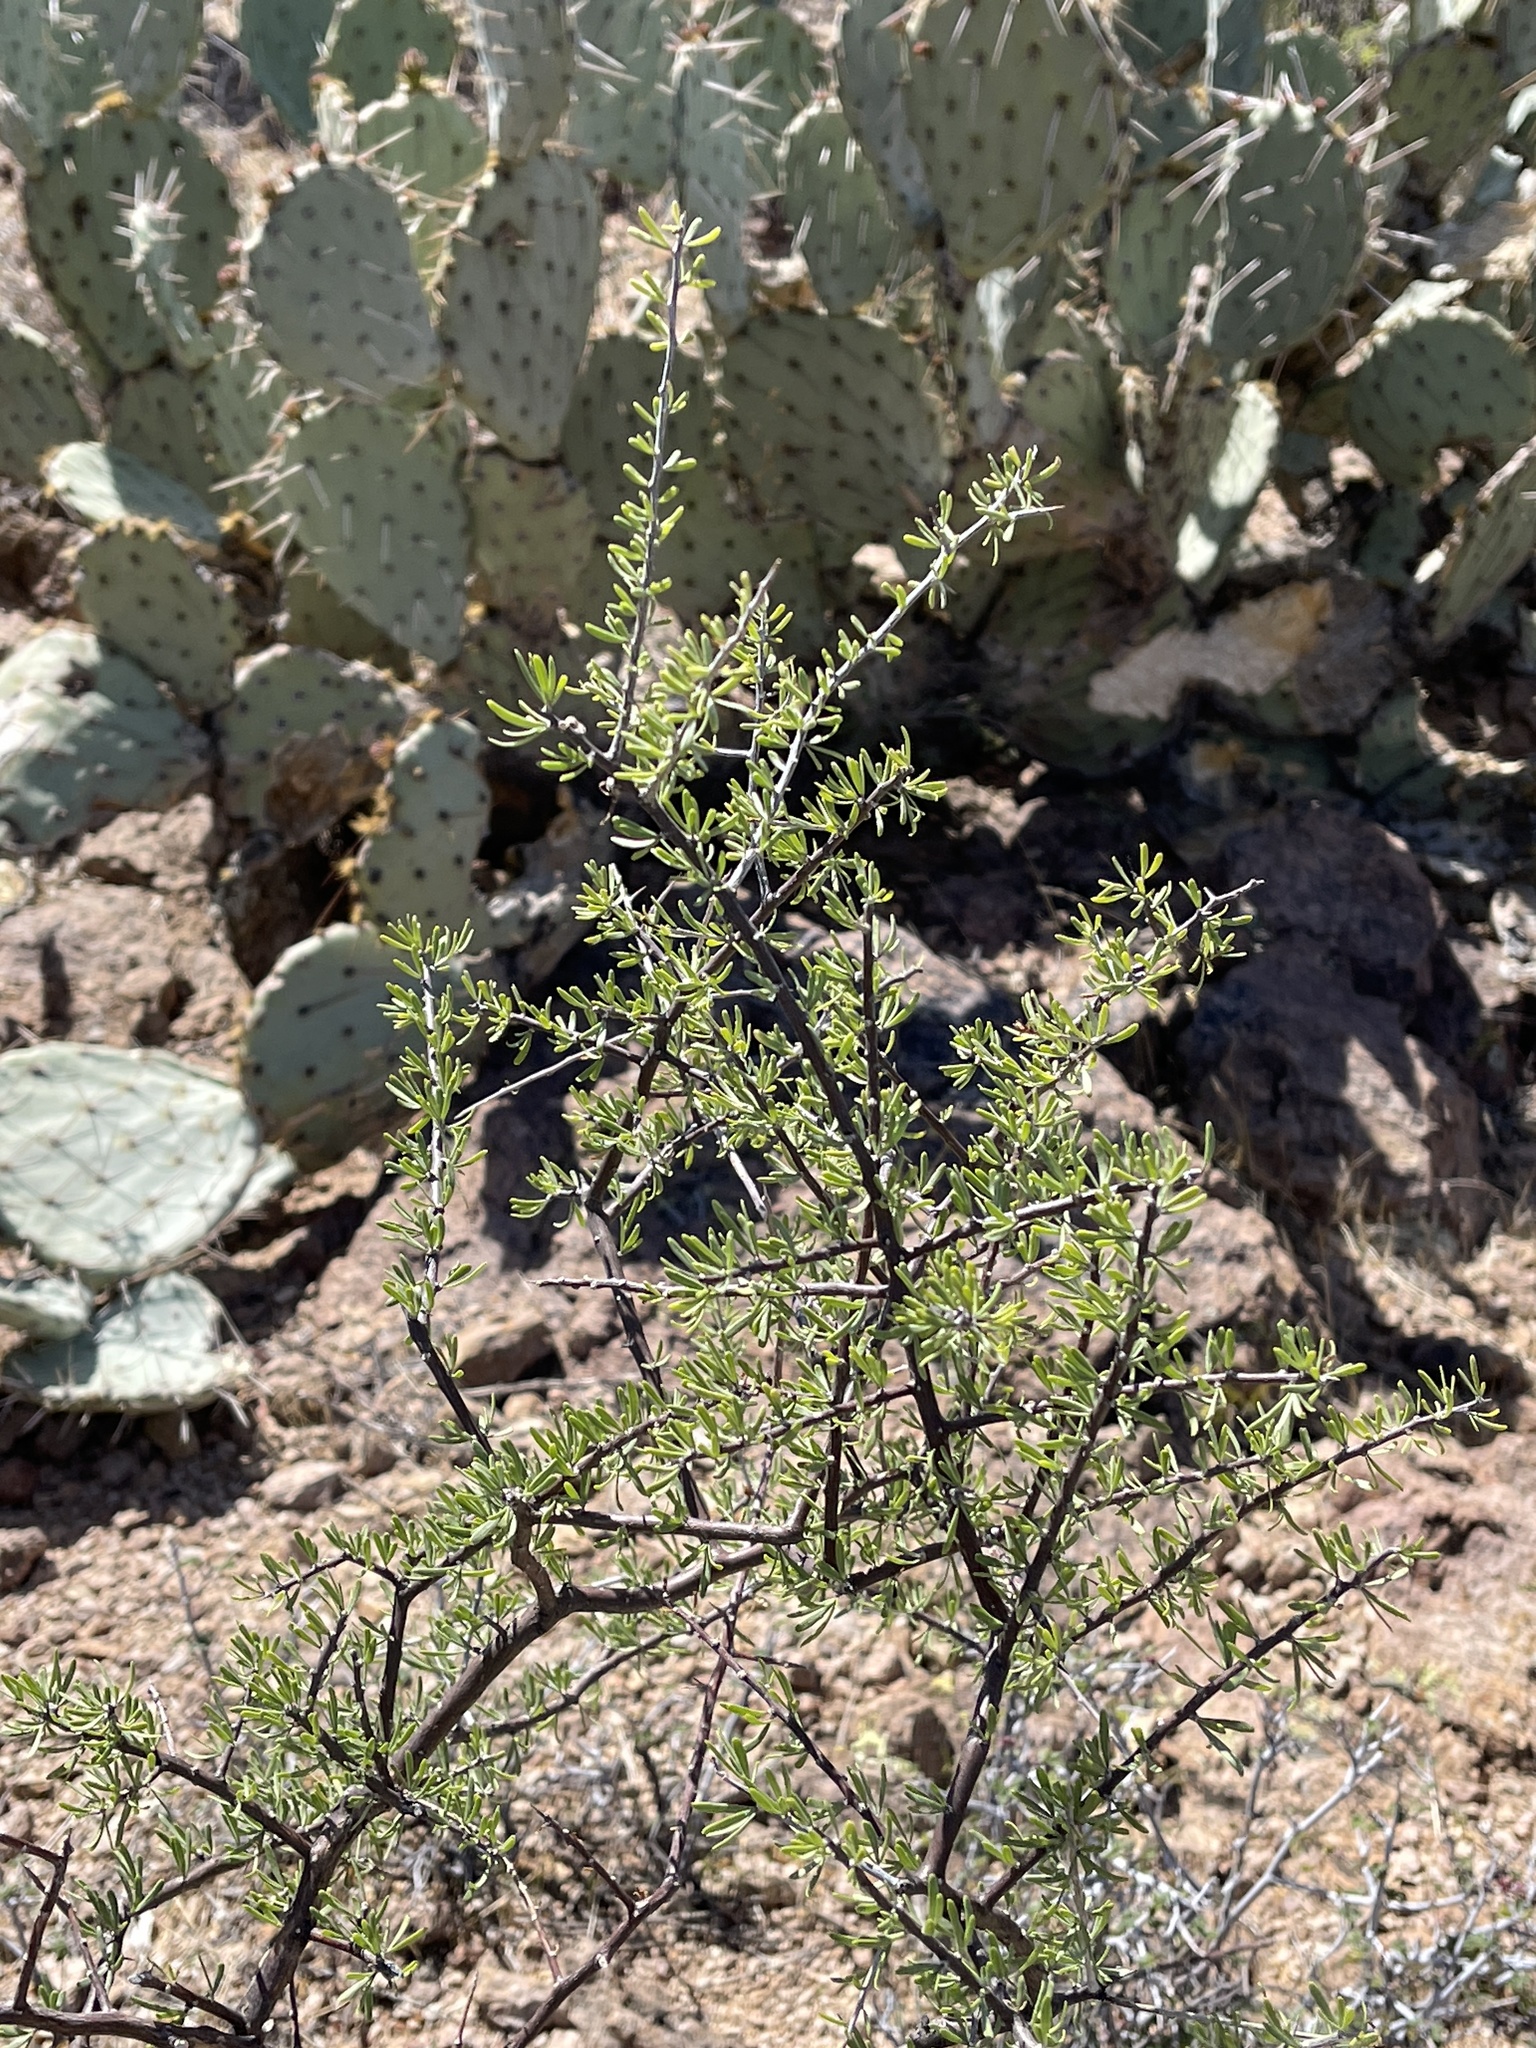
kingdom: Plantae
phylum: Tracheophyta
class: Magnoliopsida
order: Solanales
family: Solanaceae
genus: Lycium
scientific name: Lycium berlandieri
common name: Berlandier wolfberry
